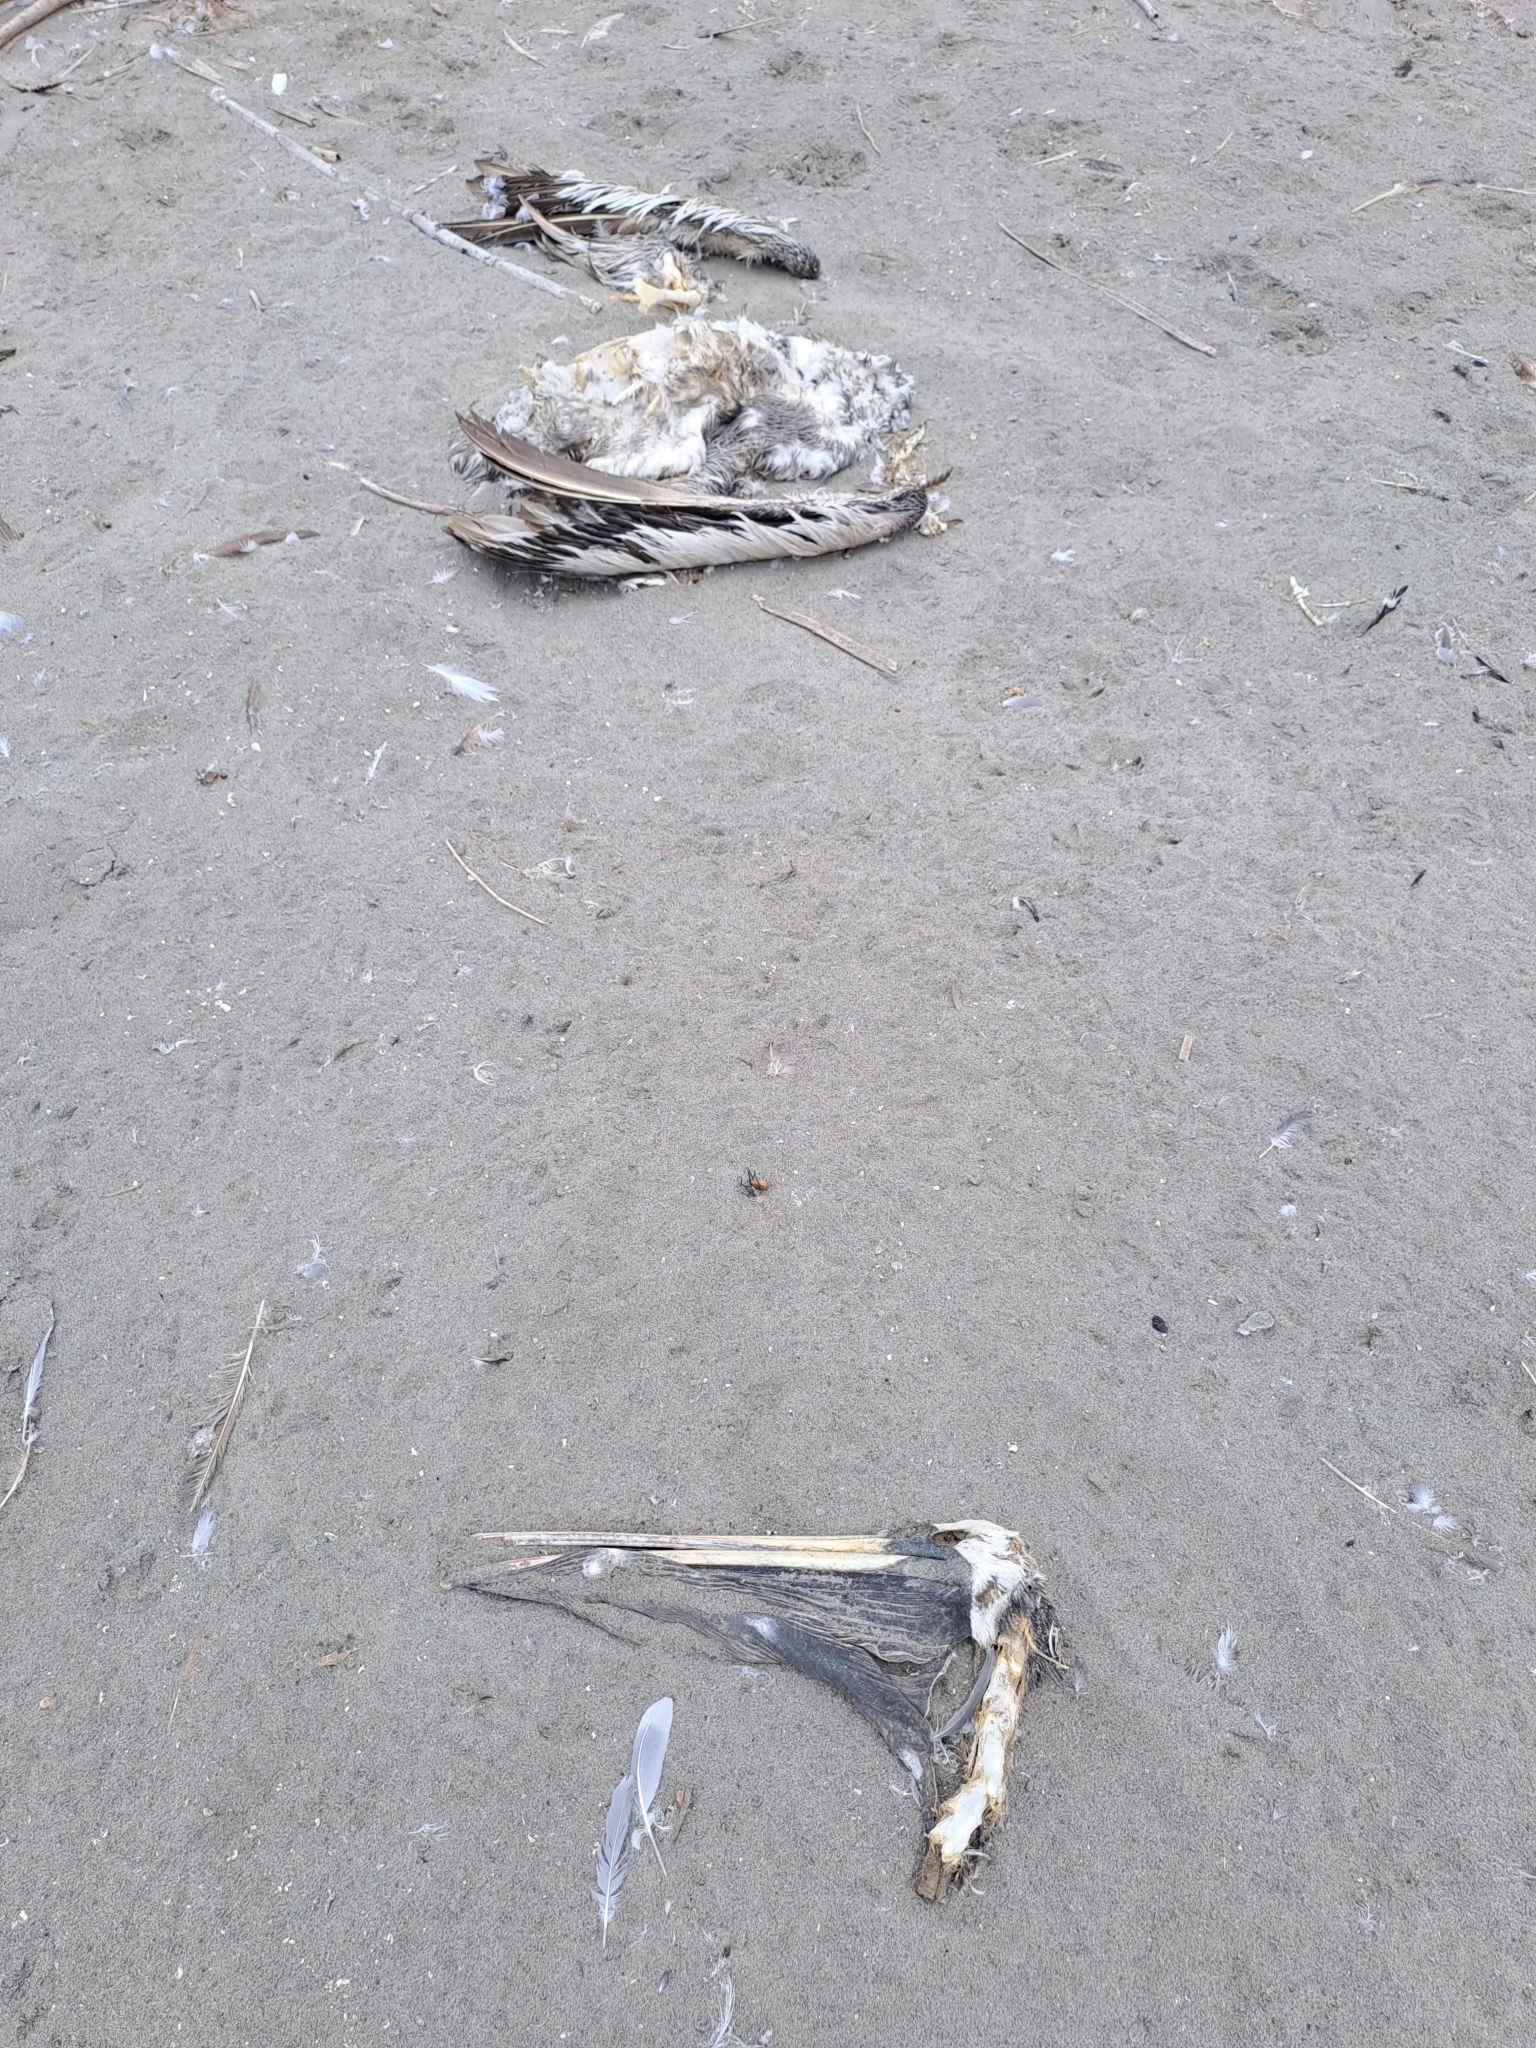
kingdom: Animalia
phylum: Chordata
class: Aves
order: Pelecaniformes
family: Pelecanidae
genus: Pelecanus
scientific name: Pelecanus thagus
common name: Peruvian pelican
